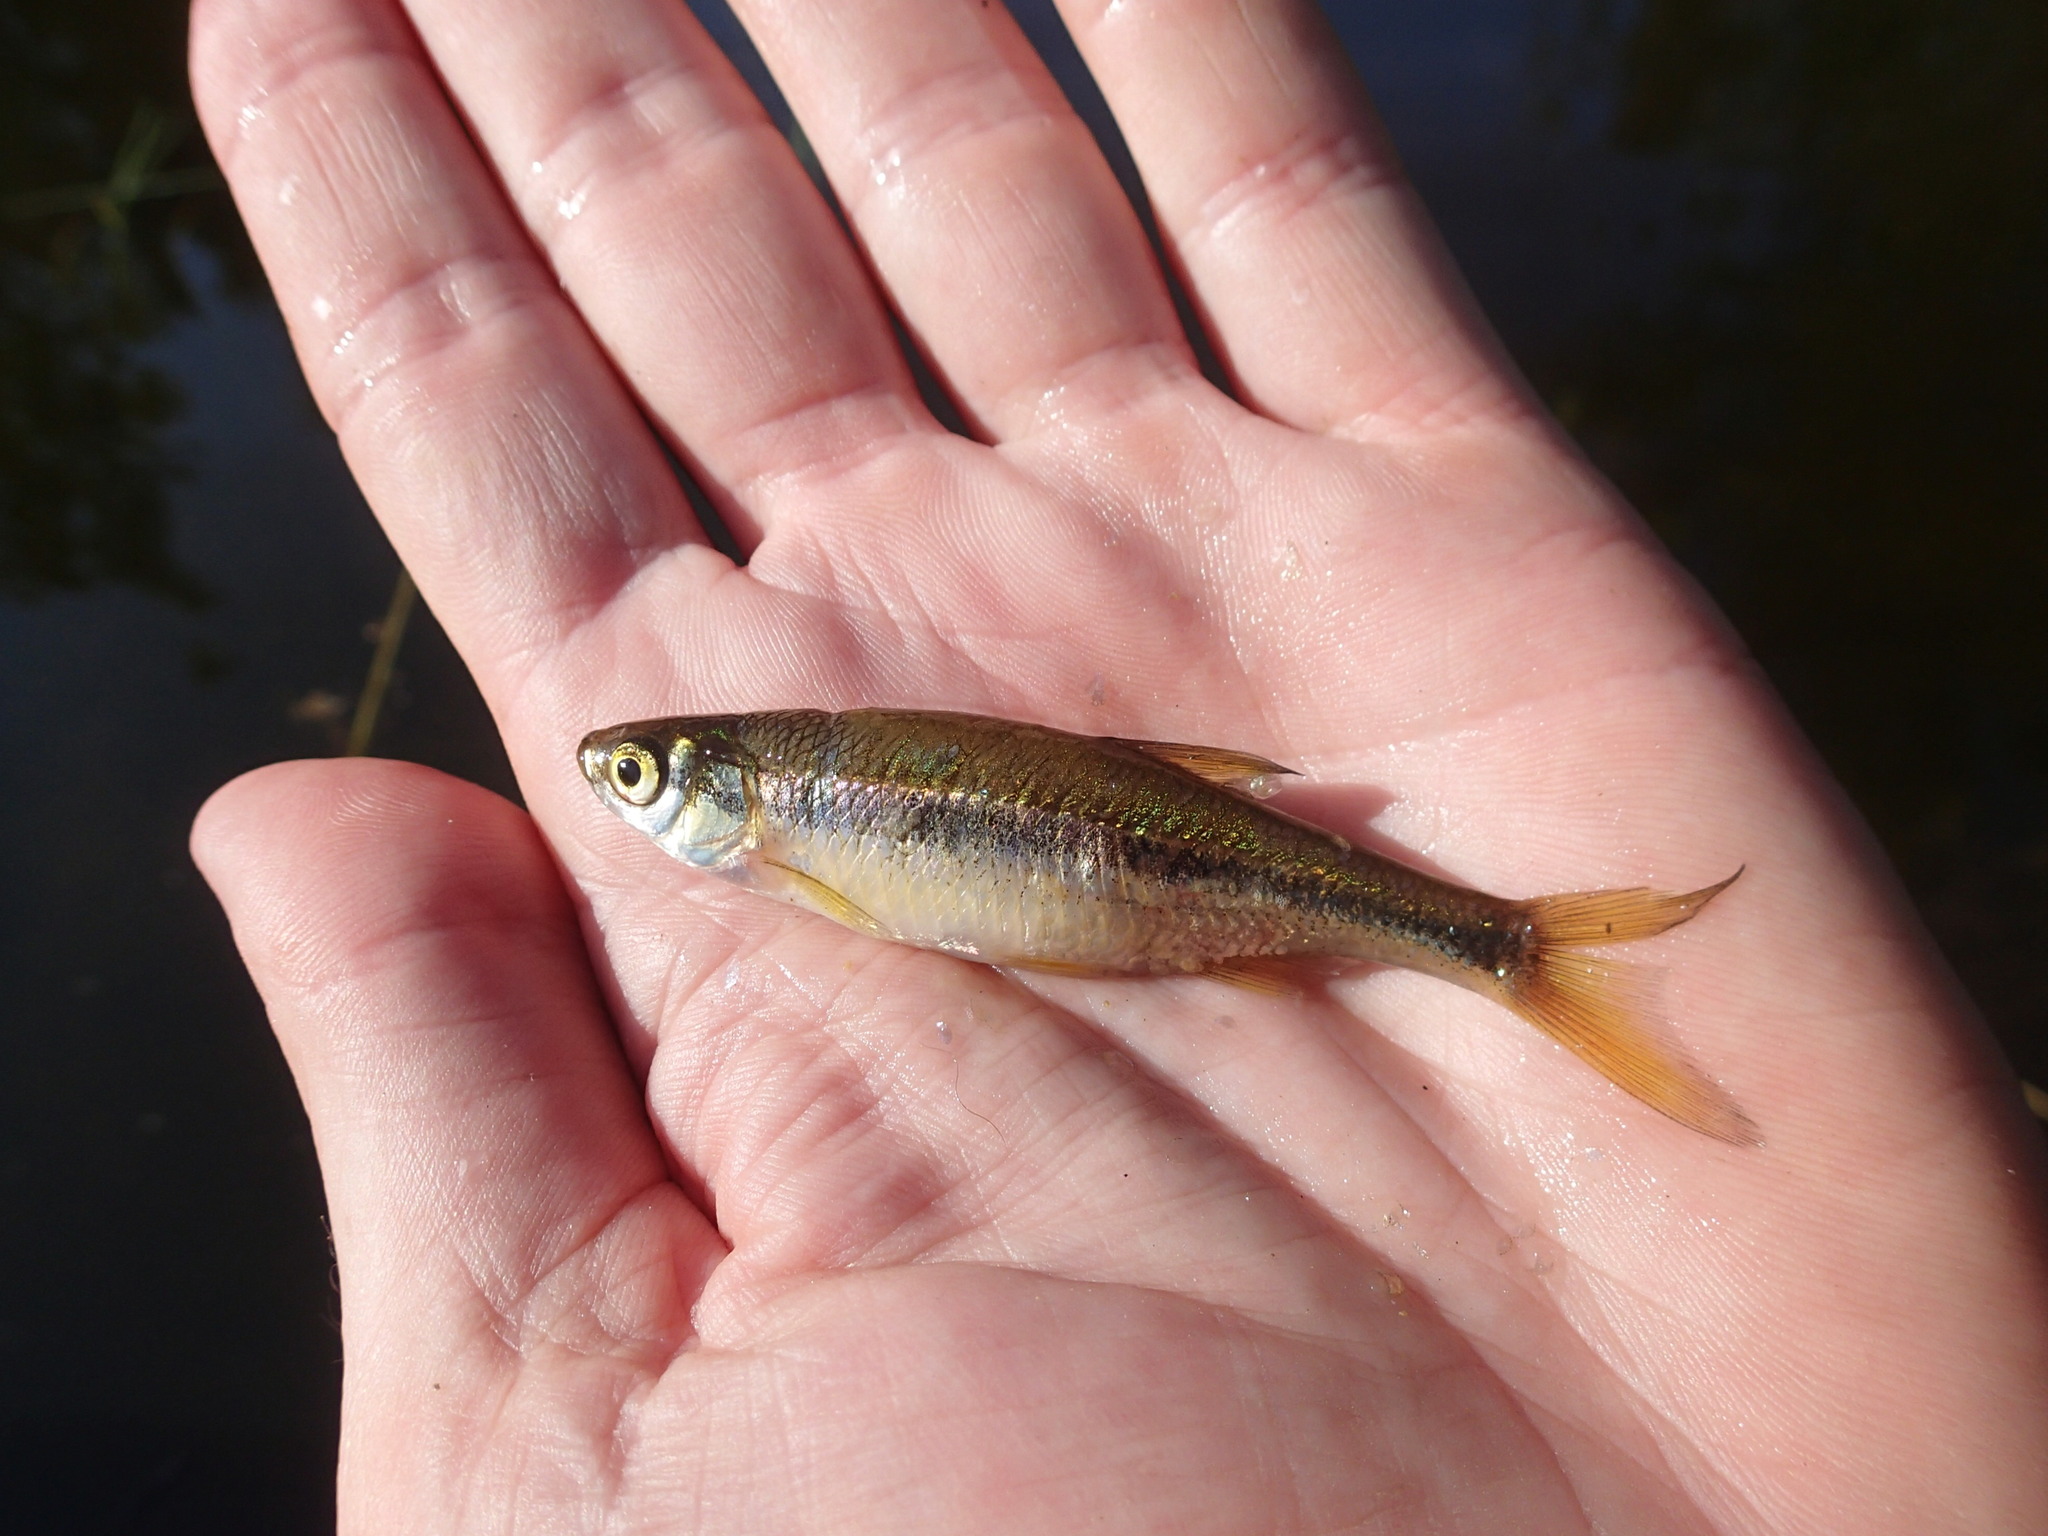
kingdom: Animalia
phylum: Chordata
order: Cypriniformes
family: Cyprinidae
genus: Notemigonus
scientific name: Notemigonus crysoleucas
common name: Golden shiner
